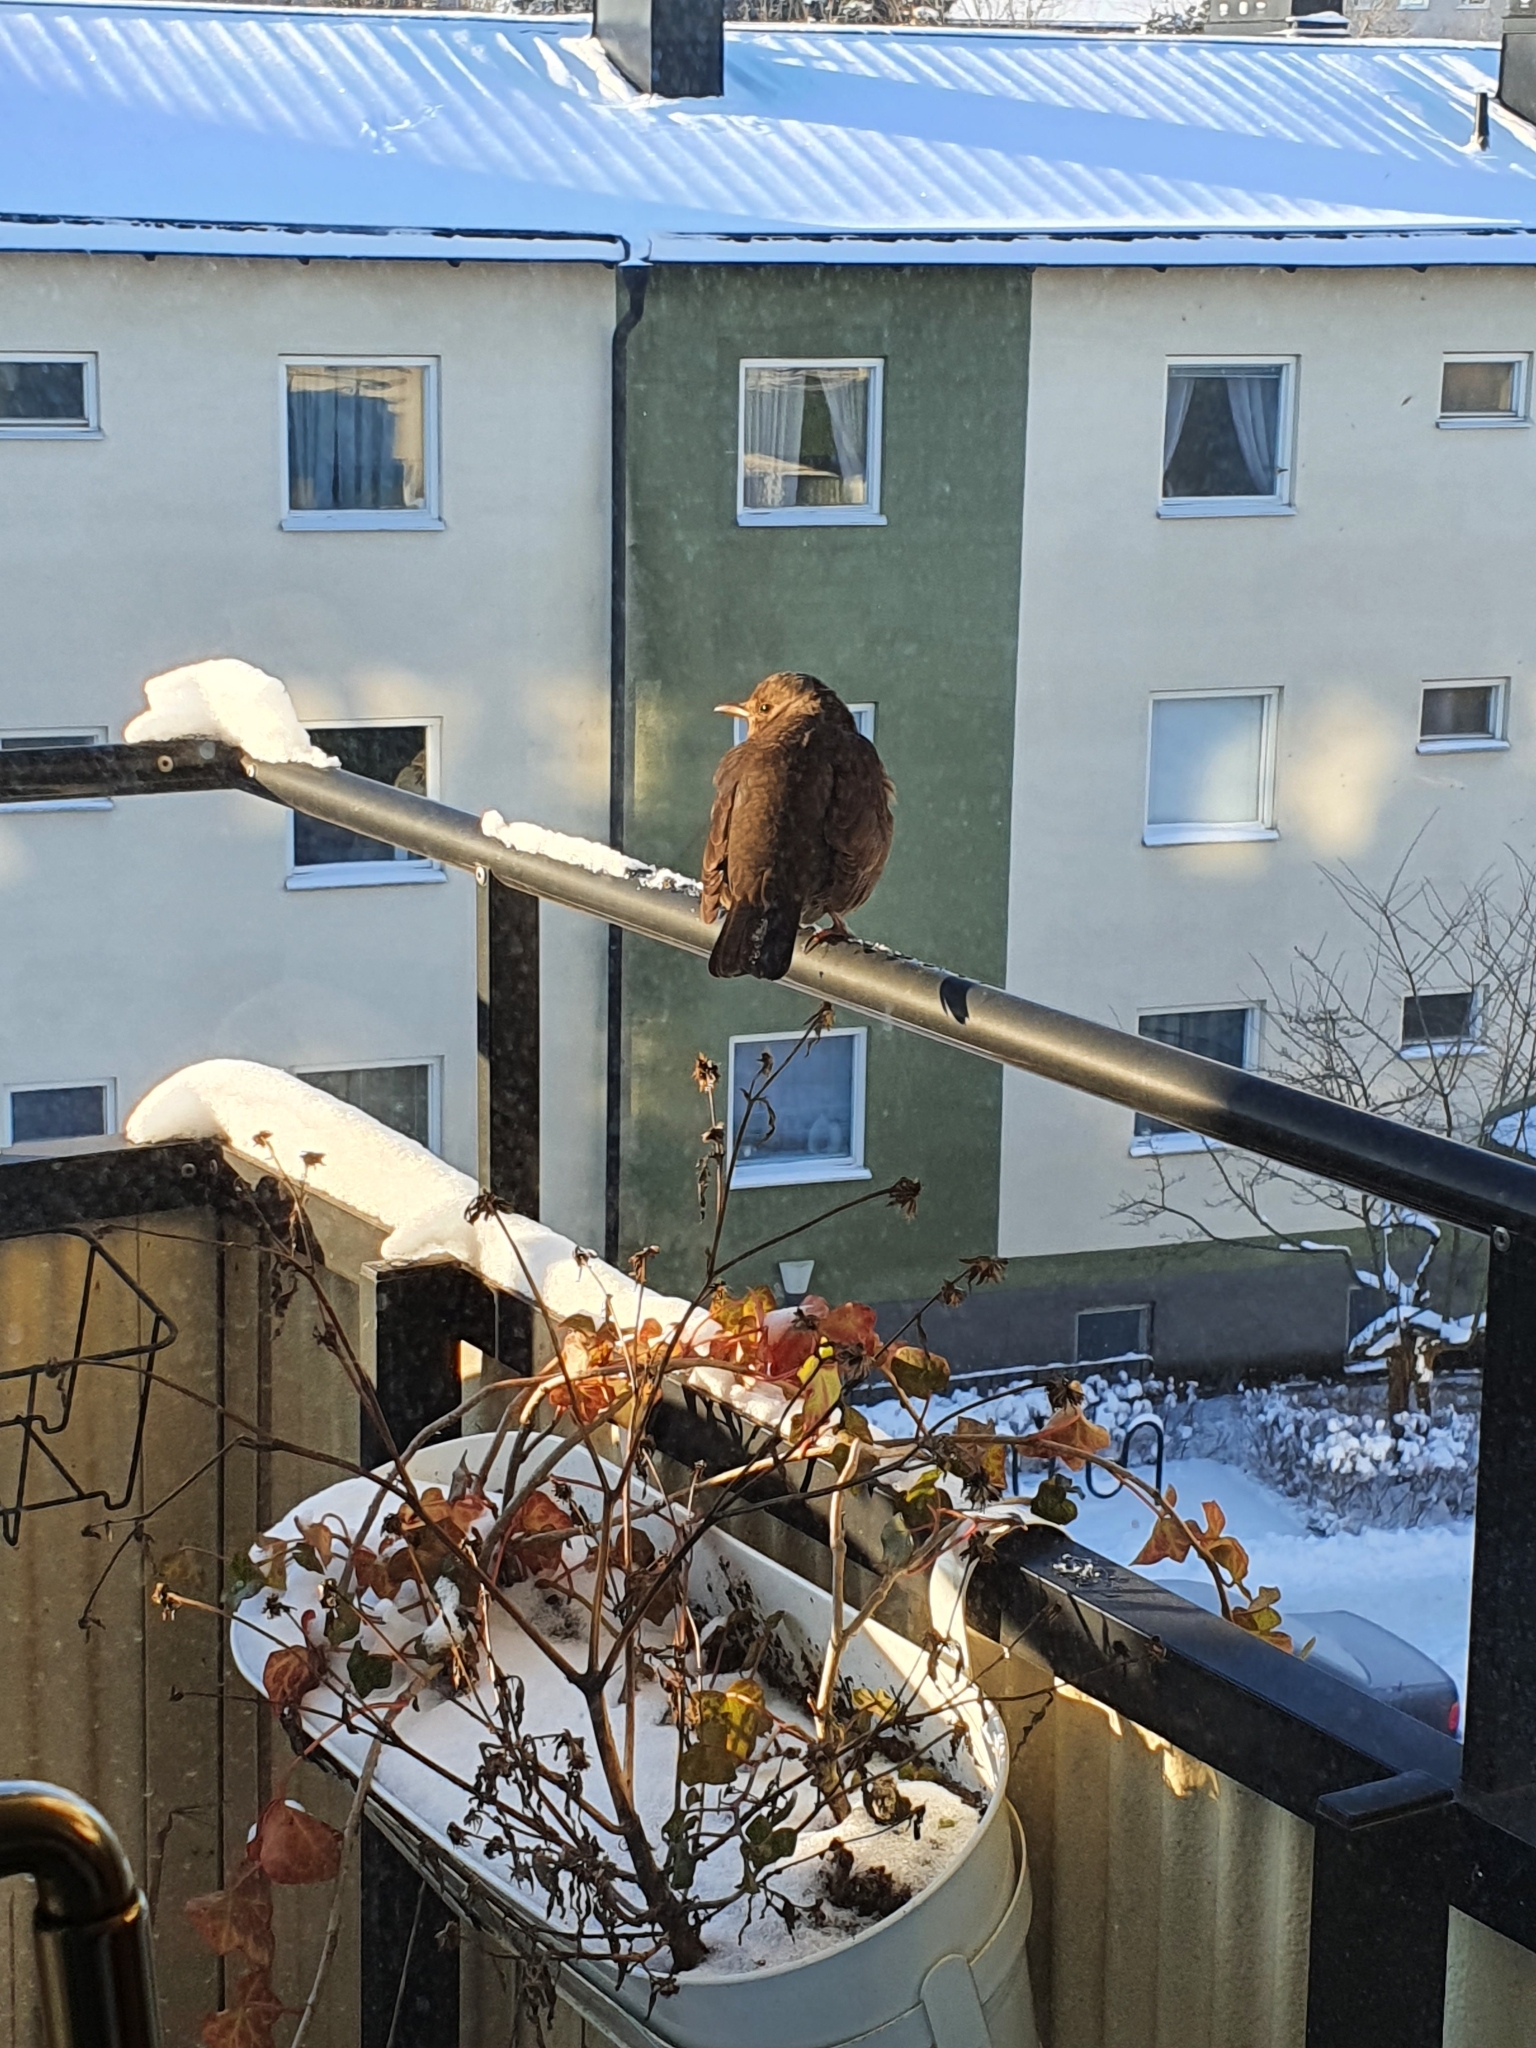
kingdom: Animalia
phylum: Chordata
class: Aves
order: Passeriformes
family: Turdidae
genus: Turdus
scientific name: Turdus merula
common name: Common blackbird
